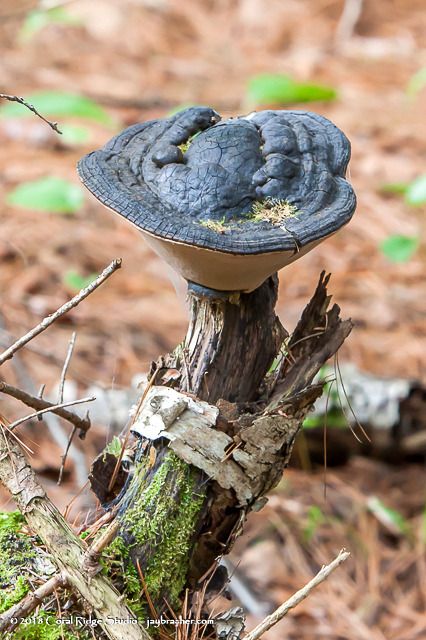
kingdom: Fungi
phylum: Basidiomycota
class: Agaricomycetes
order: Polyporales
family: Polyporaceae
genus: Ganoderma
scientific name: Ganoderma applanatum
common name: Artist's bracket
